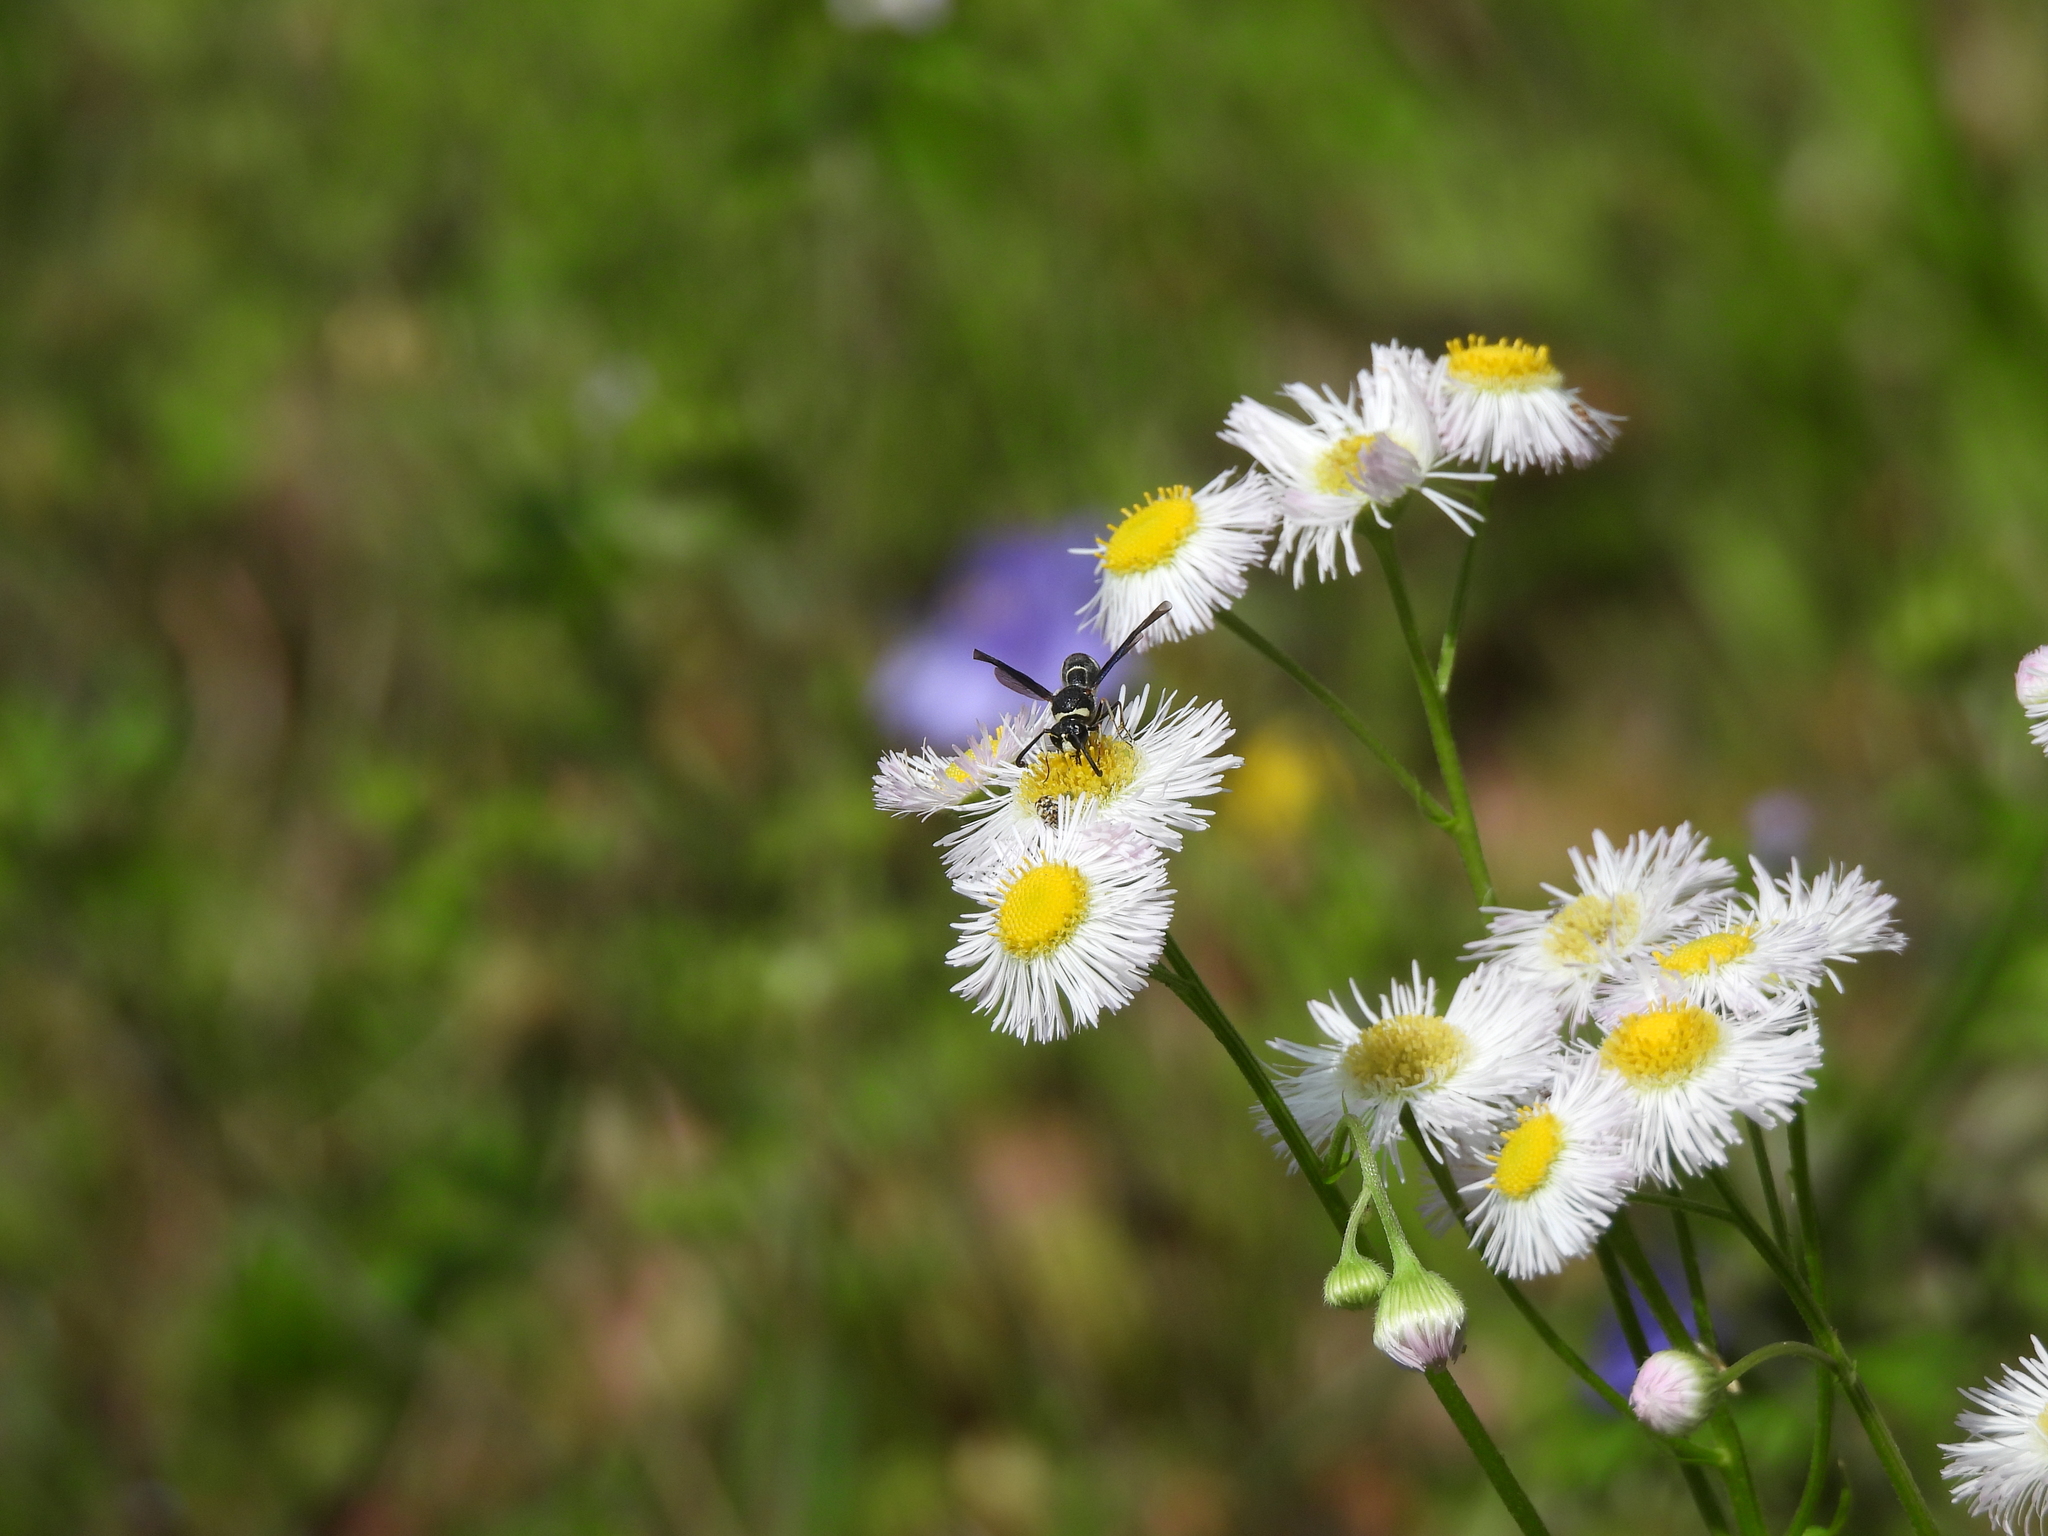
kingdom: Animalia
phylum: Arthropoda
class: Insecta
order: Hymenoptera
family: Vespidae
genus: Eumenes
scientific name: Eumenes fraternus
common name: Fraternal potter wasp
